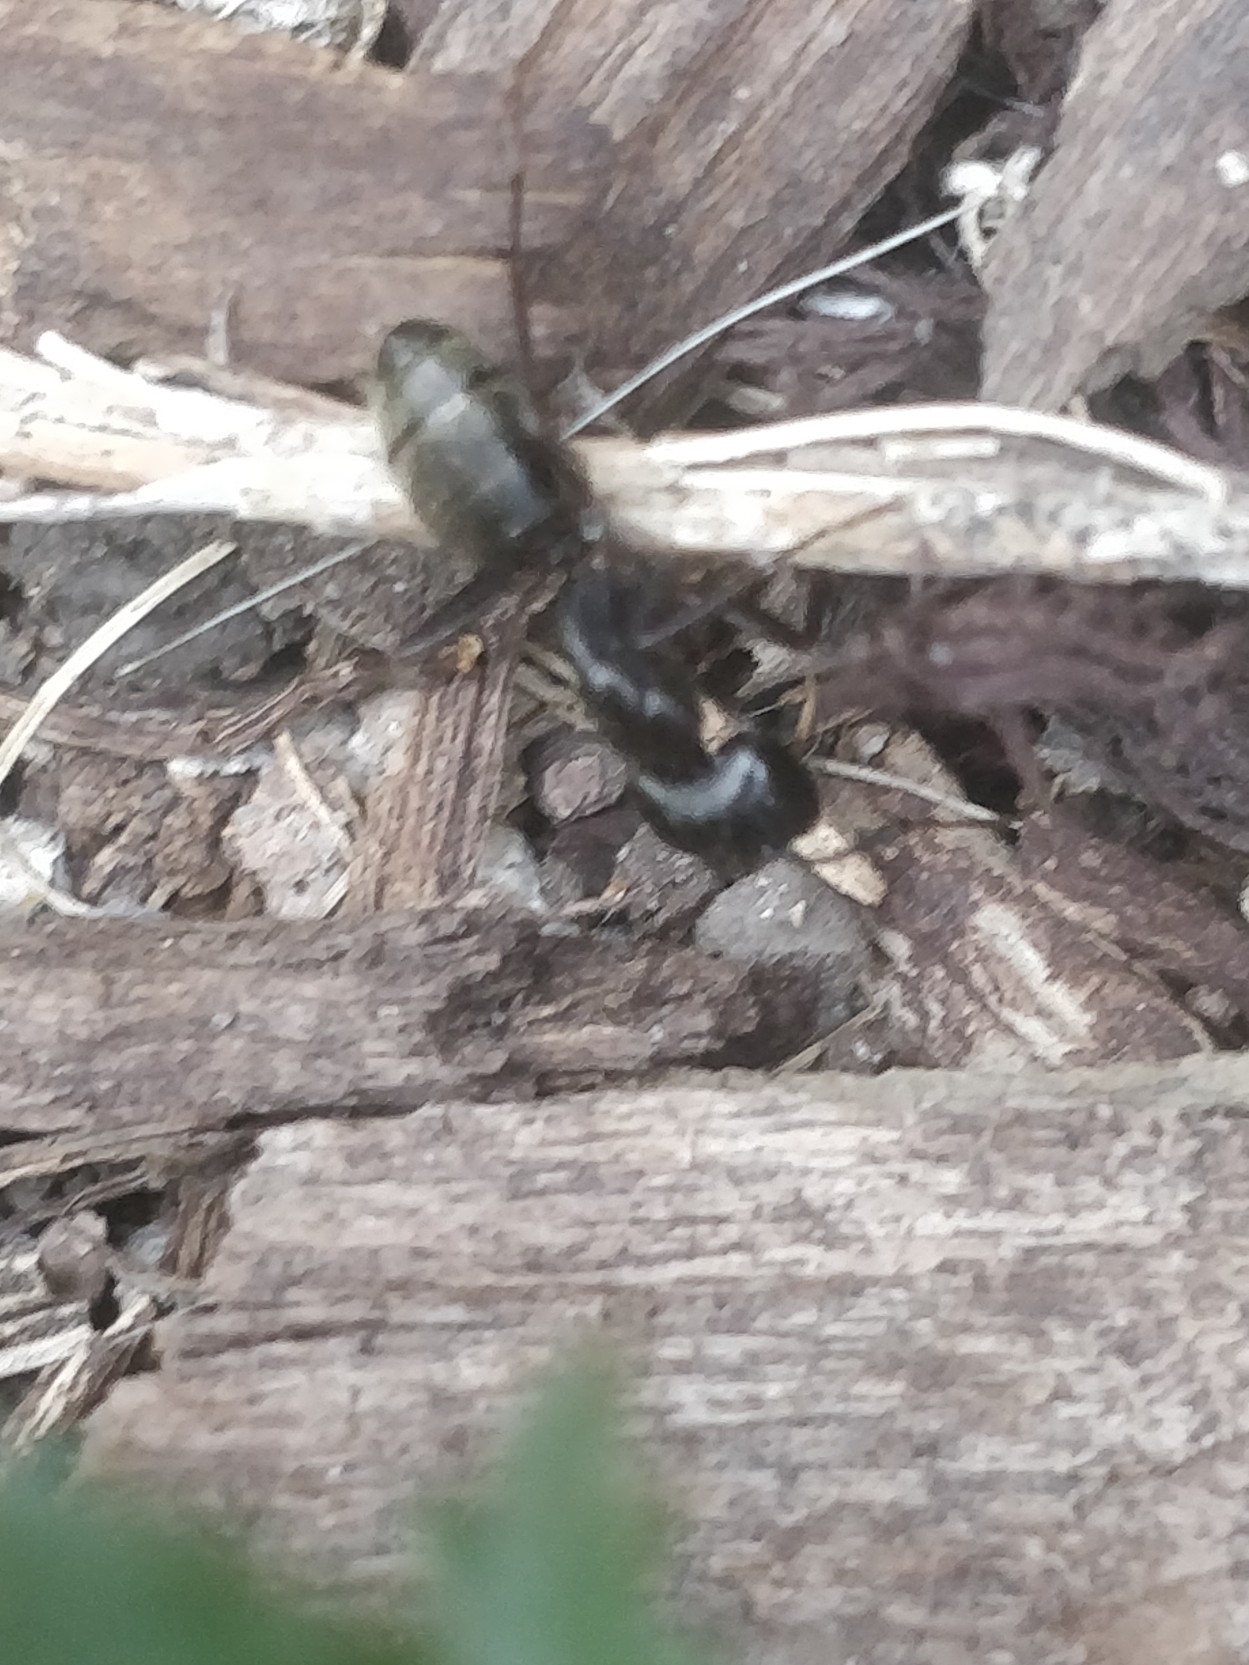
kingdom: Animalia
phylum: Arthropoda
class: Insecta
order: Hymenoptera
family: Formicidae
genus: Camponotus
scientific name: Camponotus pennsylvanicus
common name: Black carpenter ant
